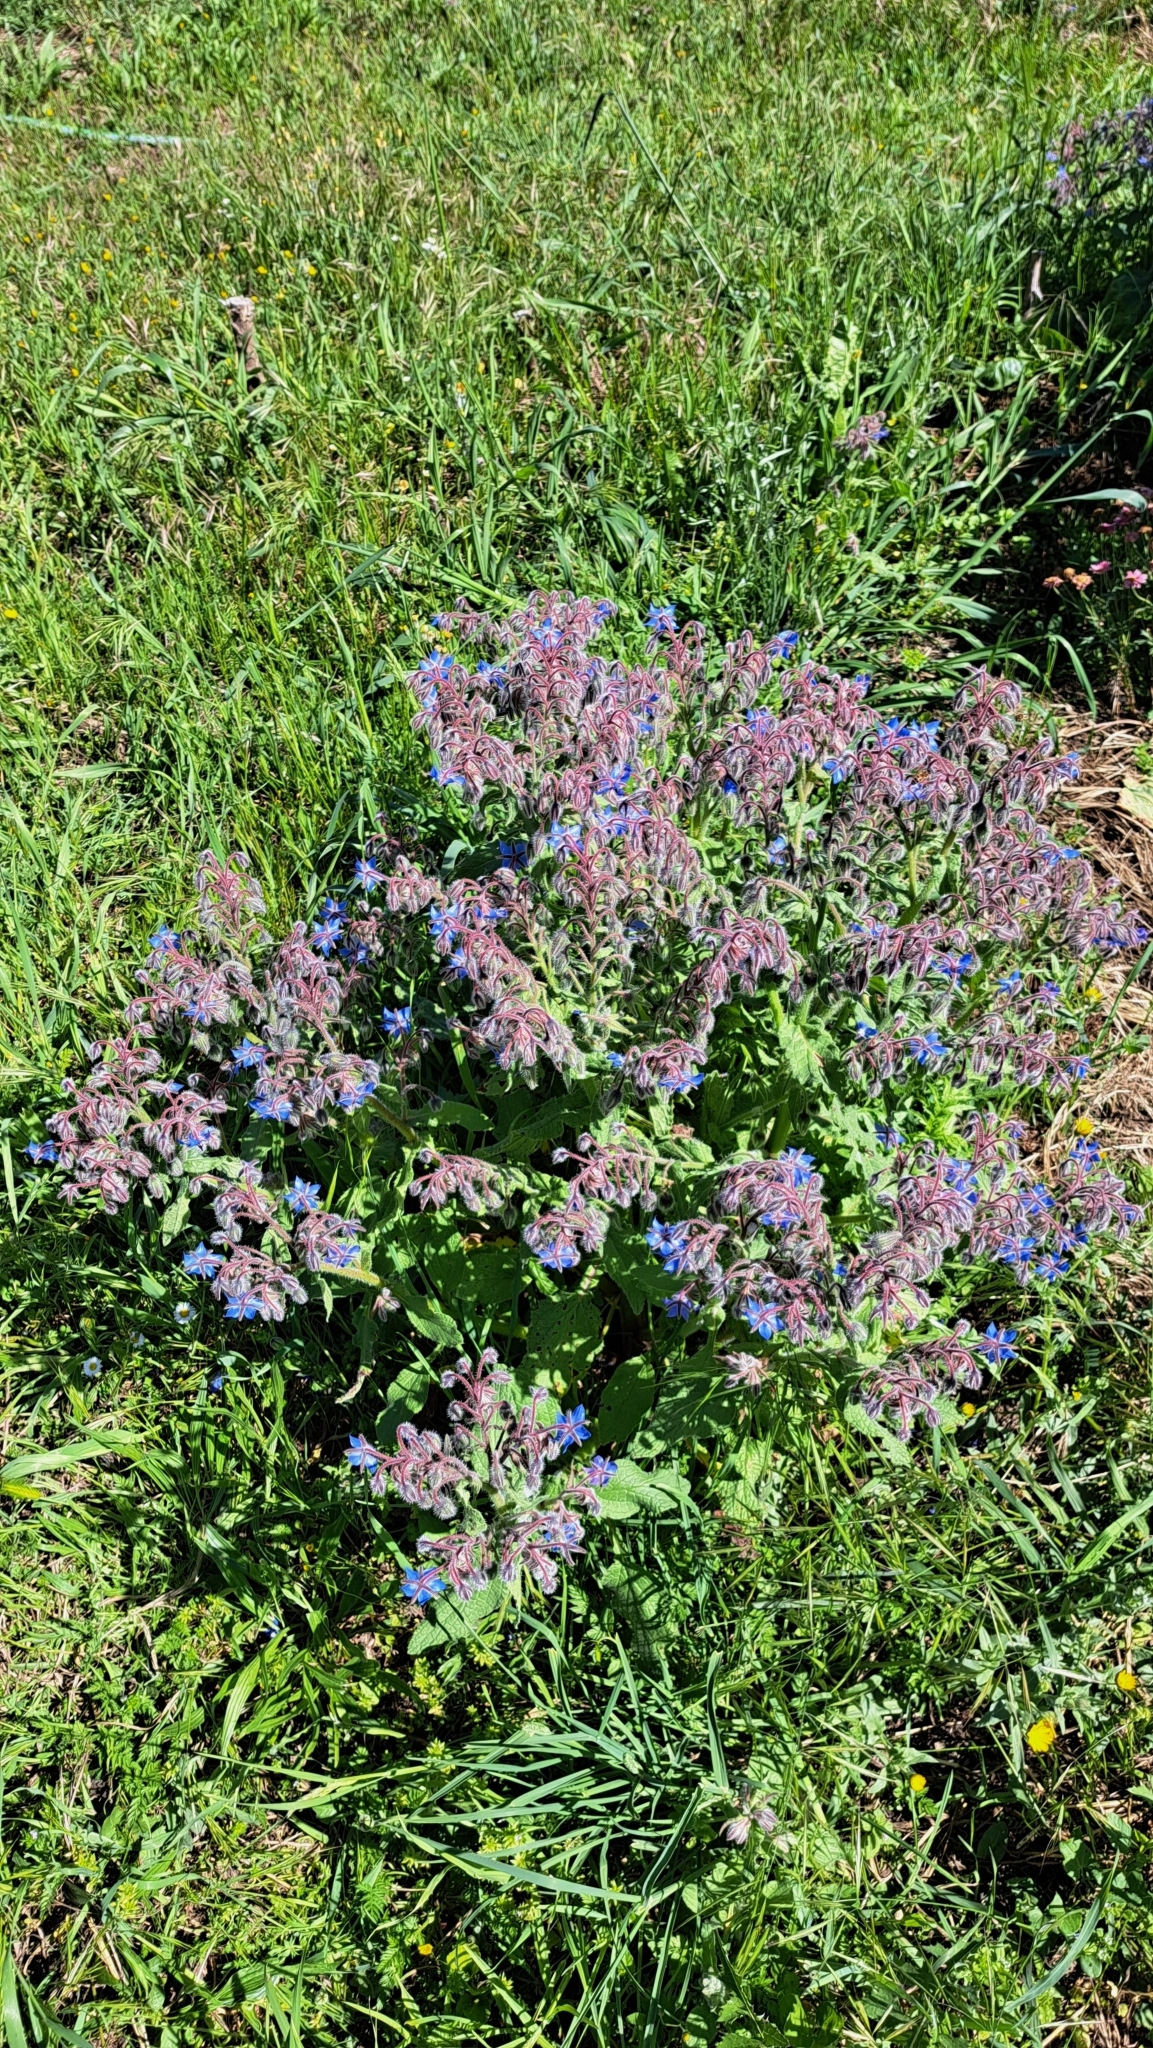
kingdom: Plantae
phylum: Tracheophyta
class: Magnoliopsida
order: Boraginales
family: Boraginaceae
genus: Borago
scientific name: Borago officinalis
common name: Borage
